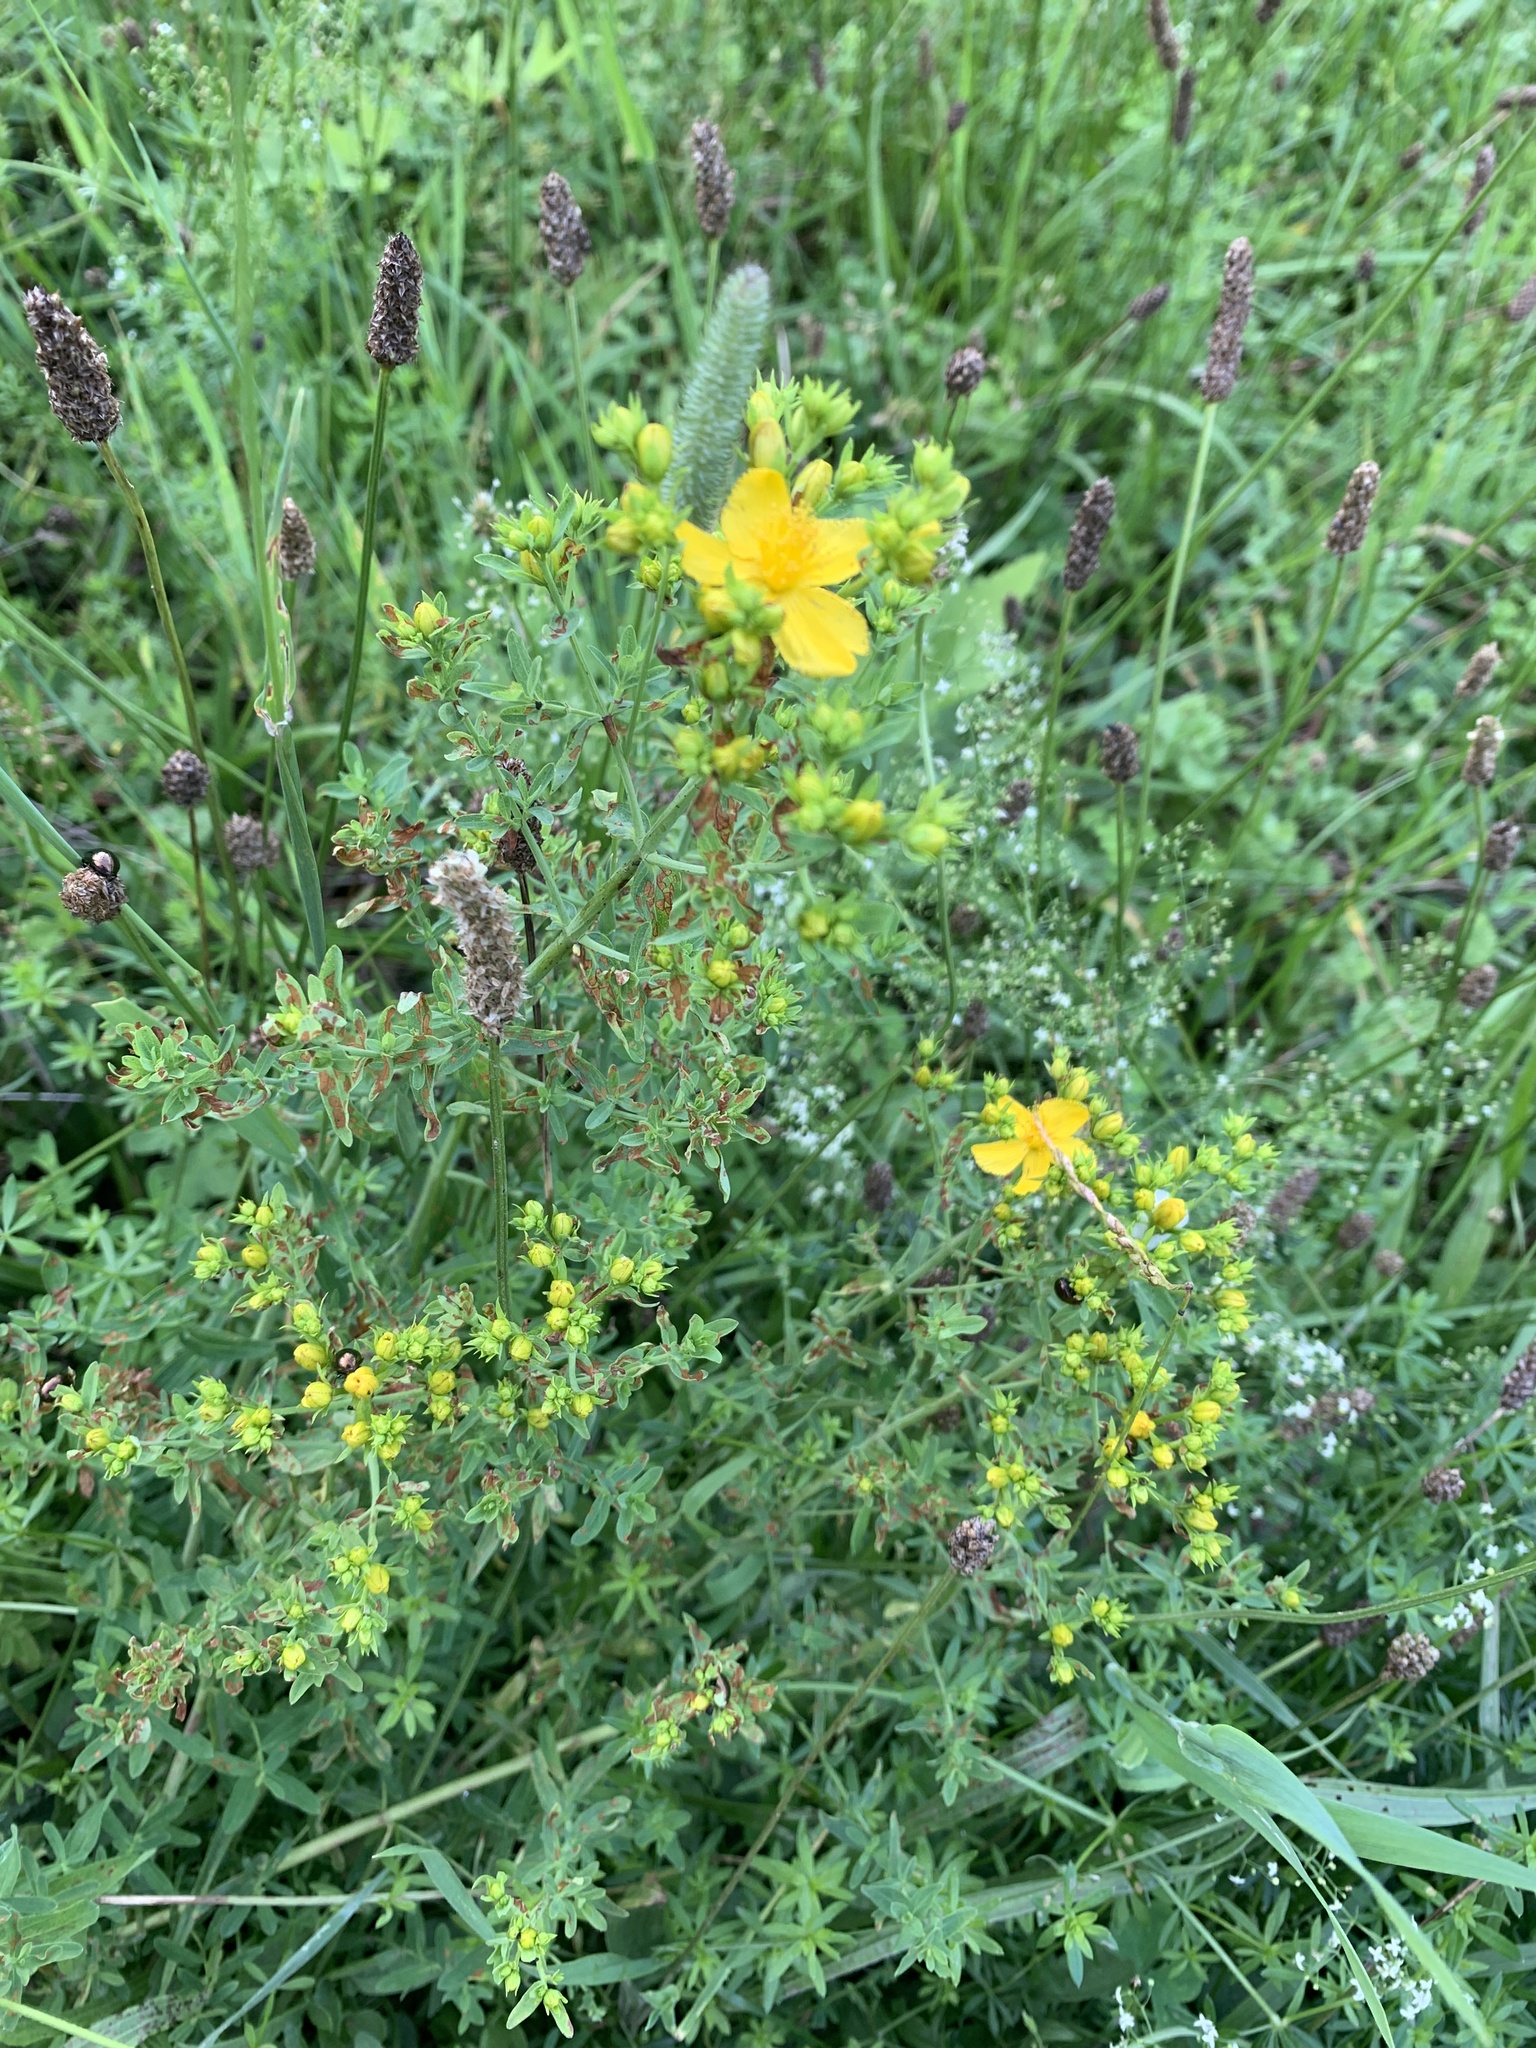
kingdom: Plantae
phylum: Tracheophyta
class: Magnoliopsida
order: Malpighiales
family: Hypericaceae
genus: Hypericum
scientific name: Hypericum perforatum
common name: Common st. johnswort
